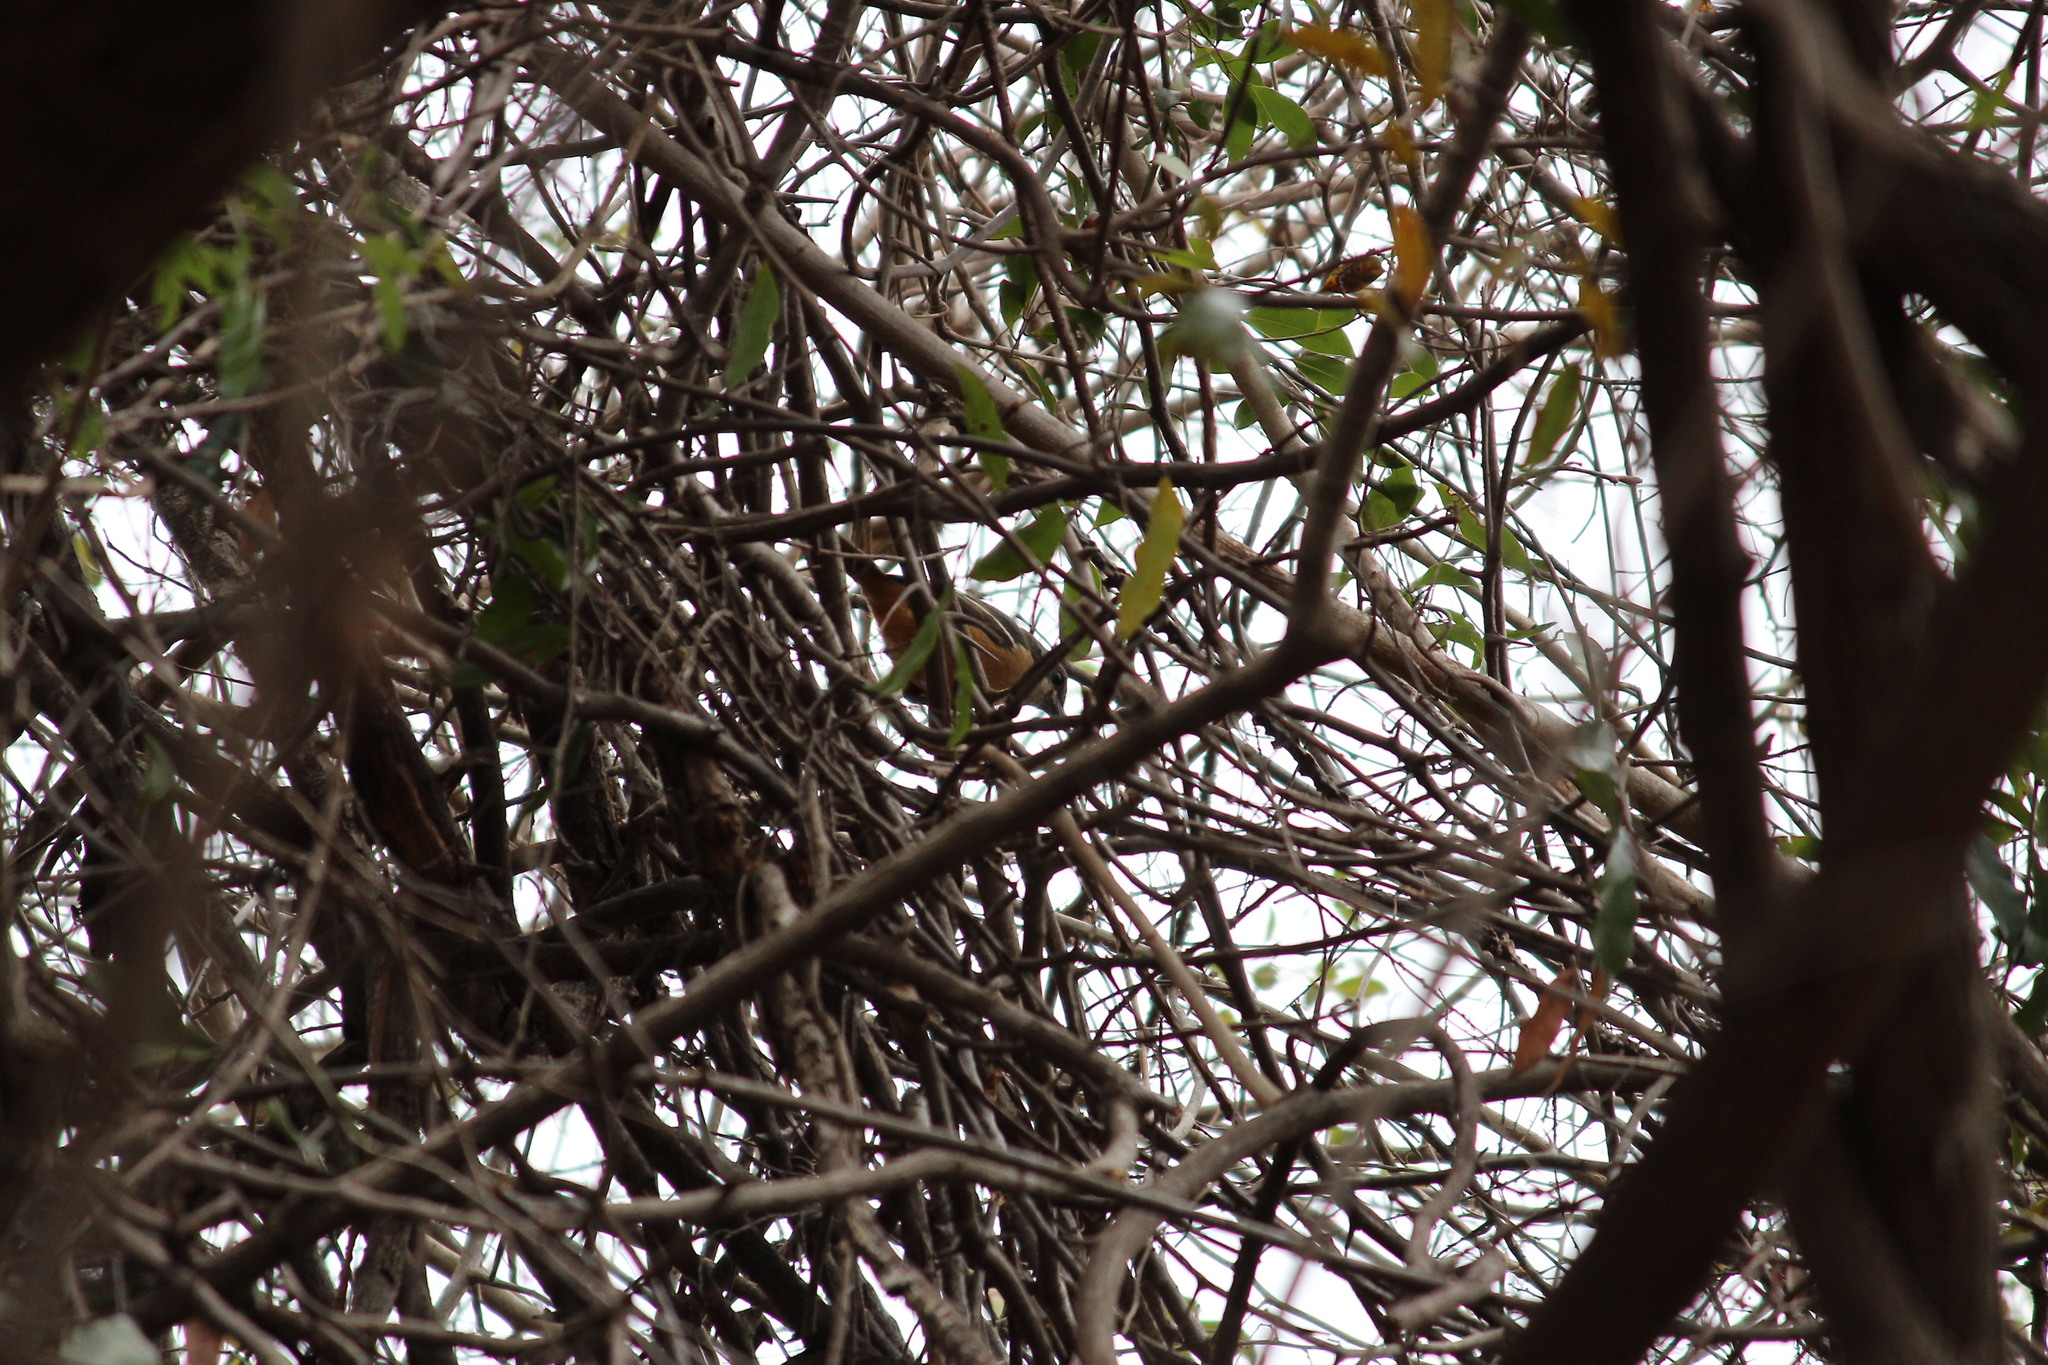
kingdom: Animalia
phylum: Chordata
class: Aves
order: Passeriformes
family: Malaconotidae
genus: Laniarius
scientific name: Laniarius ferrugineus
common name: Southern boubou
